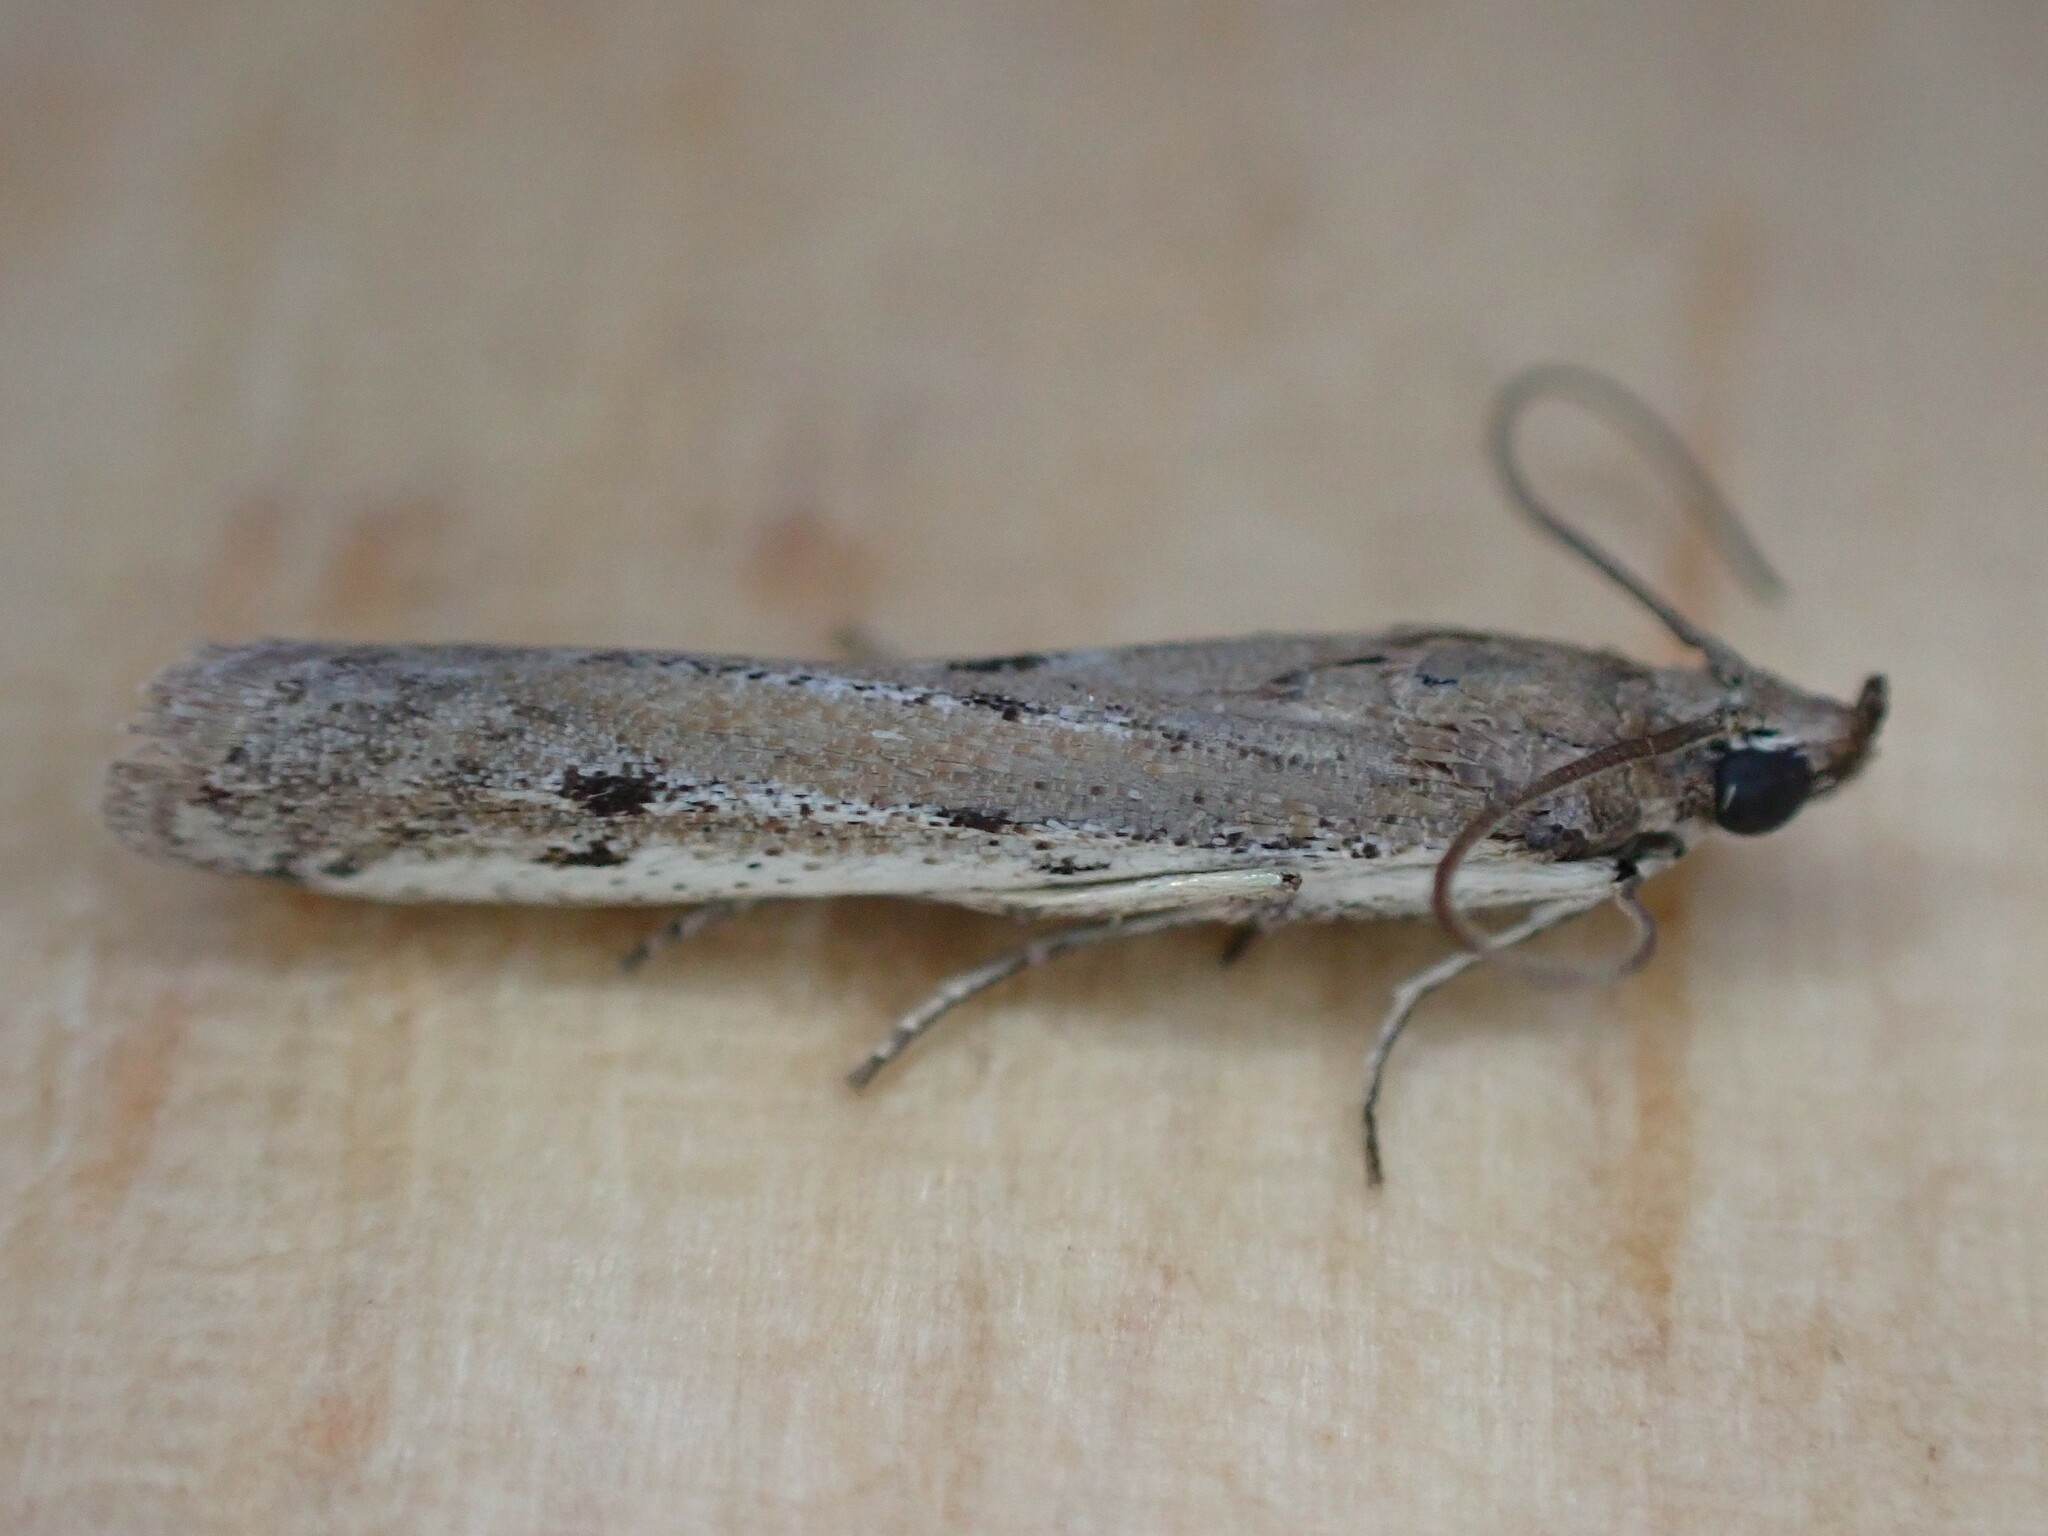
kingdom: Animalia
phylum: Arthropoda
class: Insecta
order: Lepidoptera
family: Pyralidae
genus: Phycitodes
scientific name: Phycitodes binaevella
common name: Ermine knot-horn
